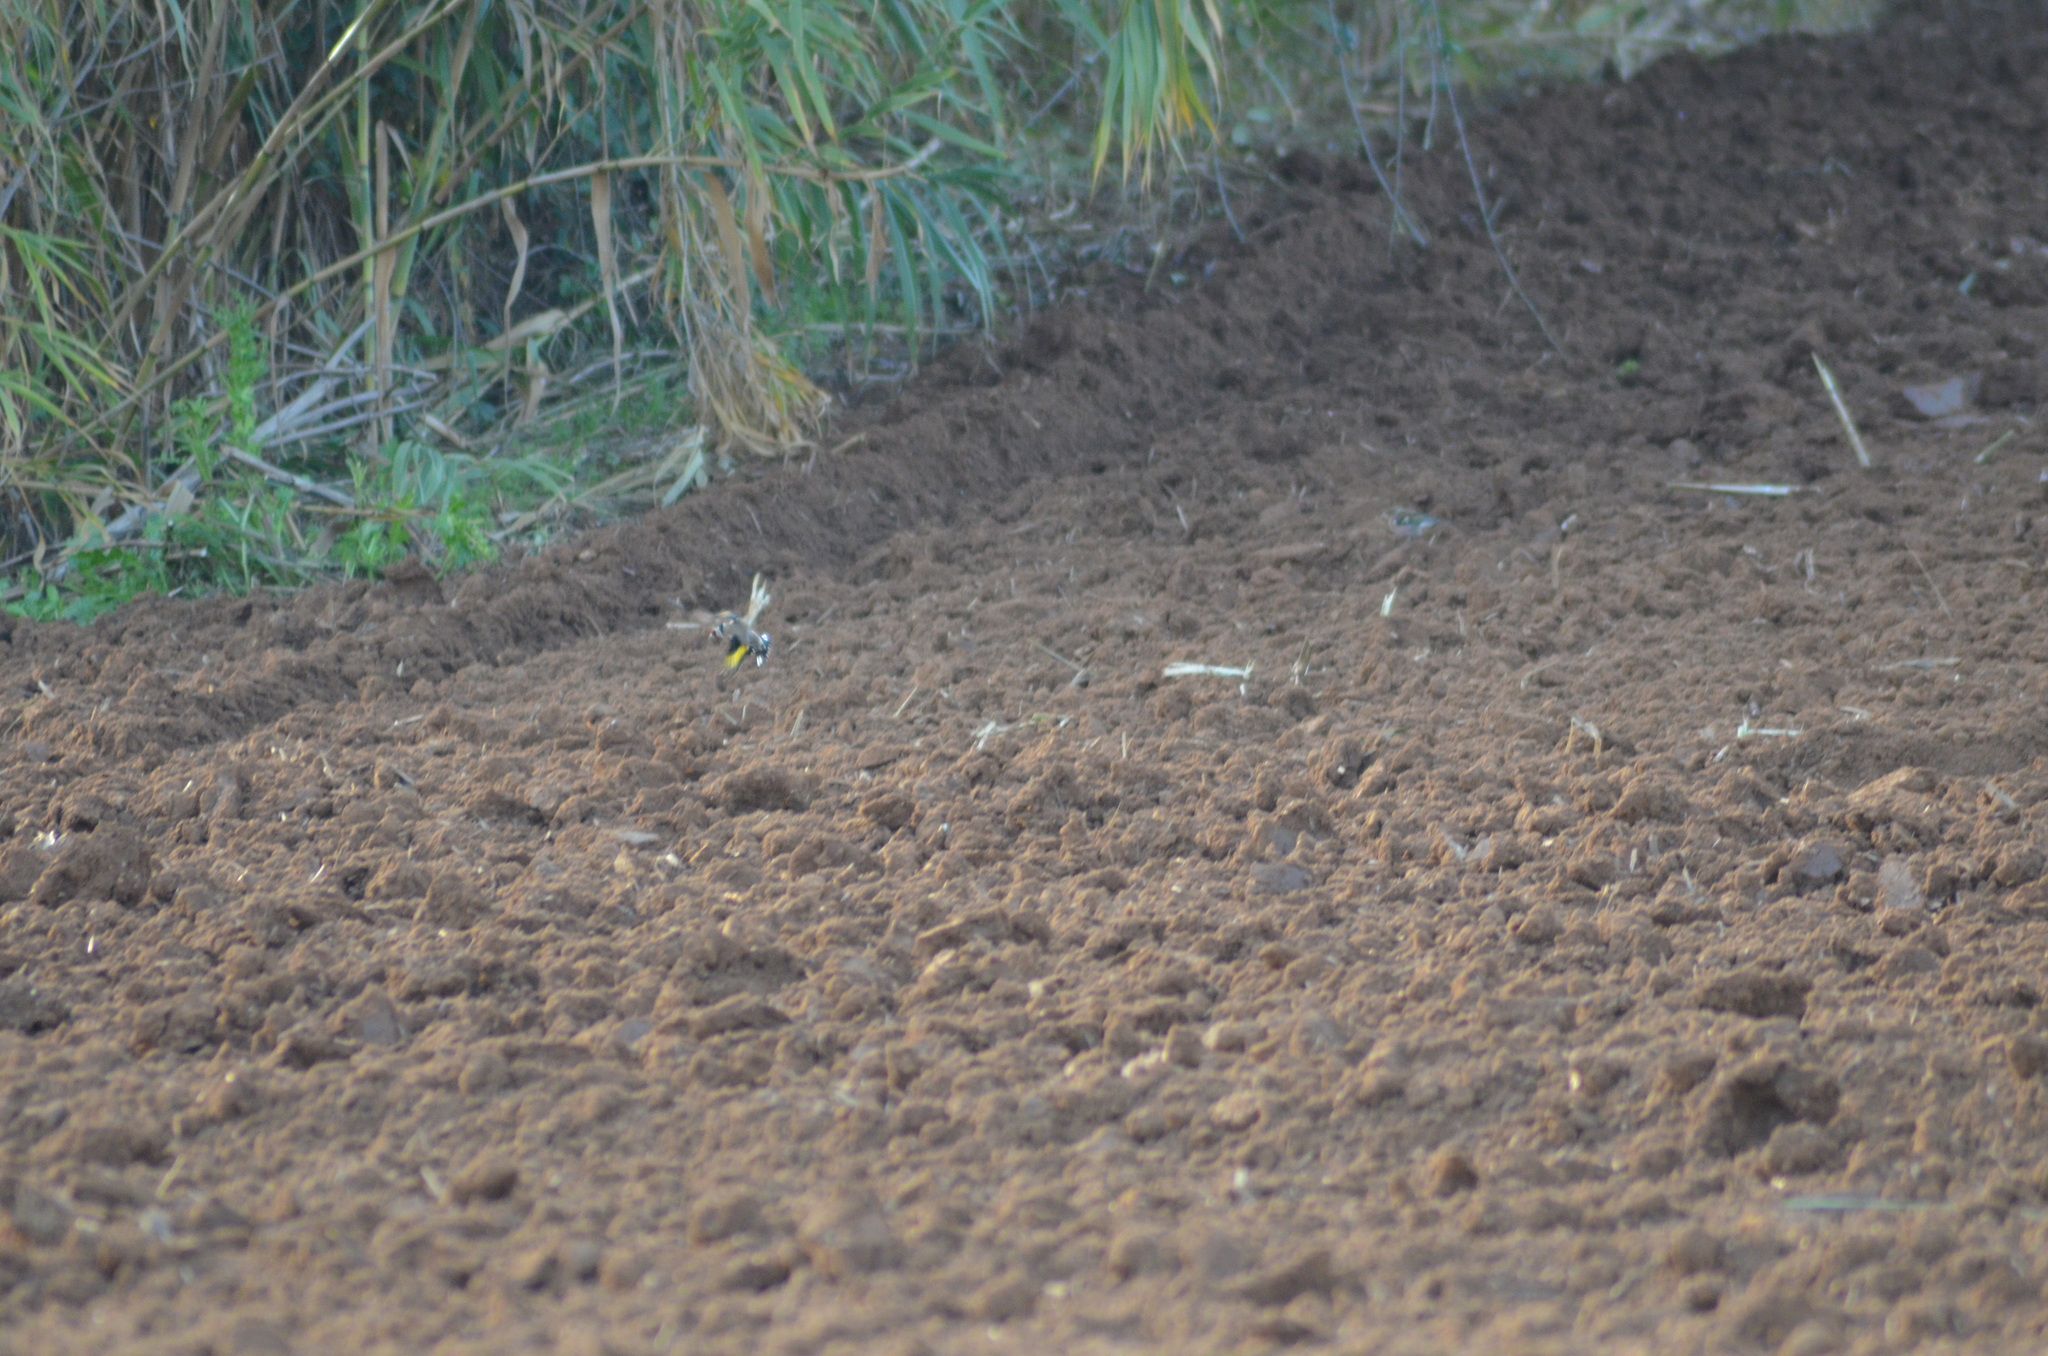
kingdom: Animalia
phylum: Chordata
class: Aves
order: Passeriformes
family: Fringillidae
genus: Carduelis
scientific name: Carduelis carduelis
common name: European goldfinch
